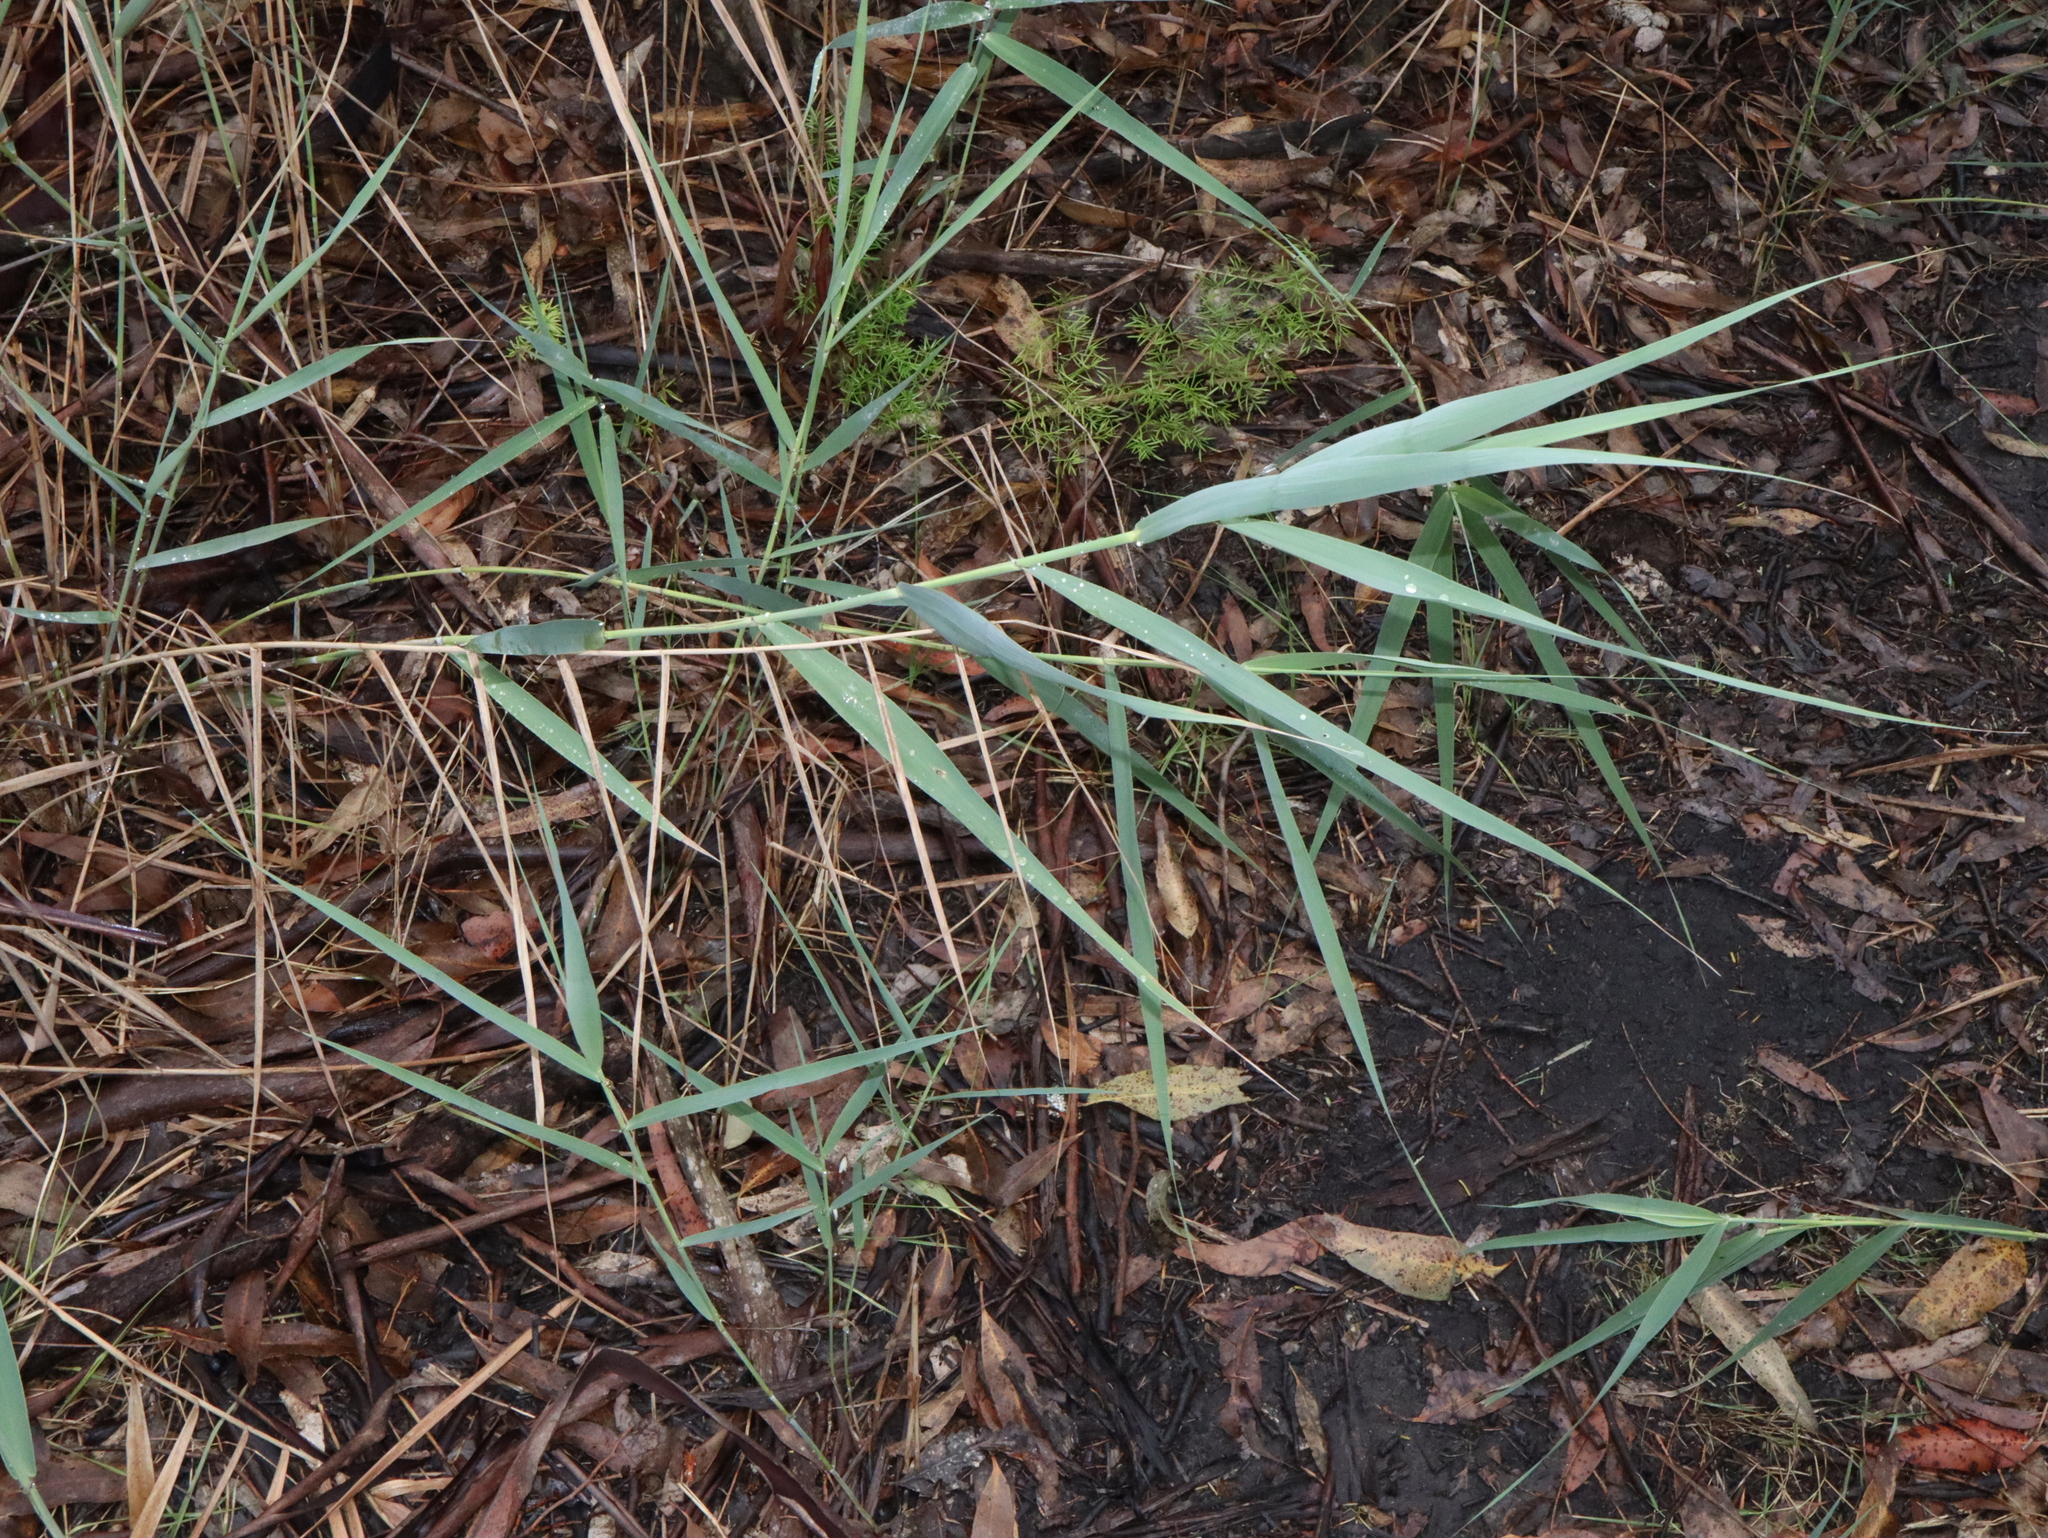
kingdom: Plantae
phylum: Tracheophyta
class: Liliopsida
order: Poales
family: Poaceae
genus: Phragmites
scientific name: Phragmites australis
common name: Common reed
